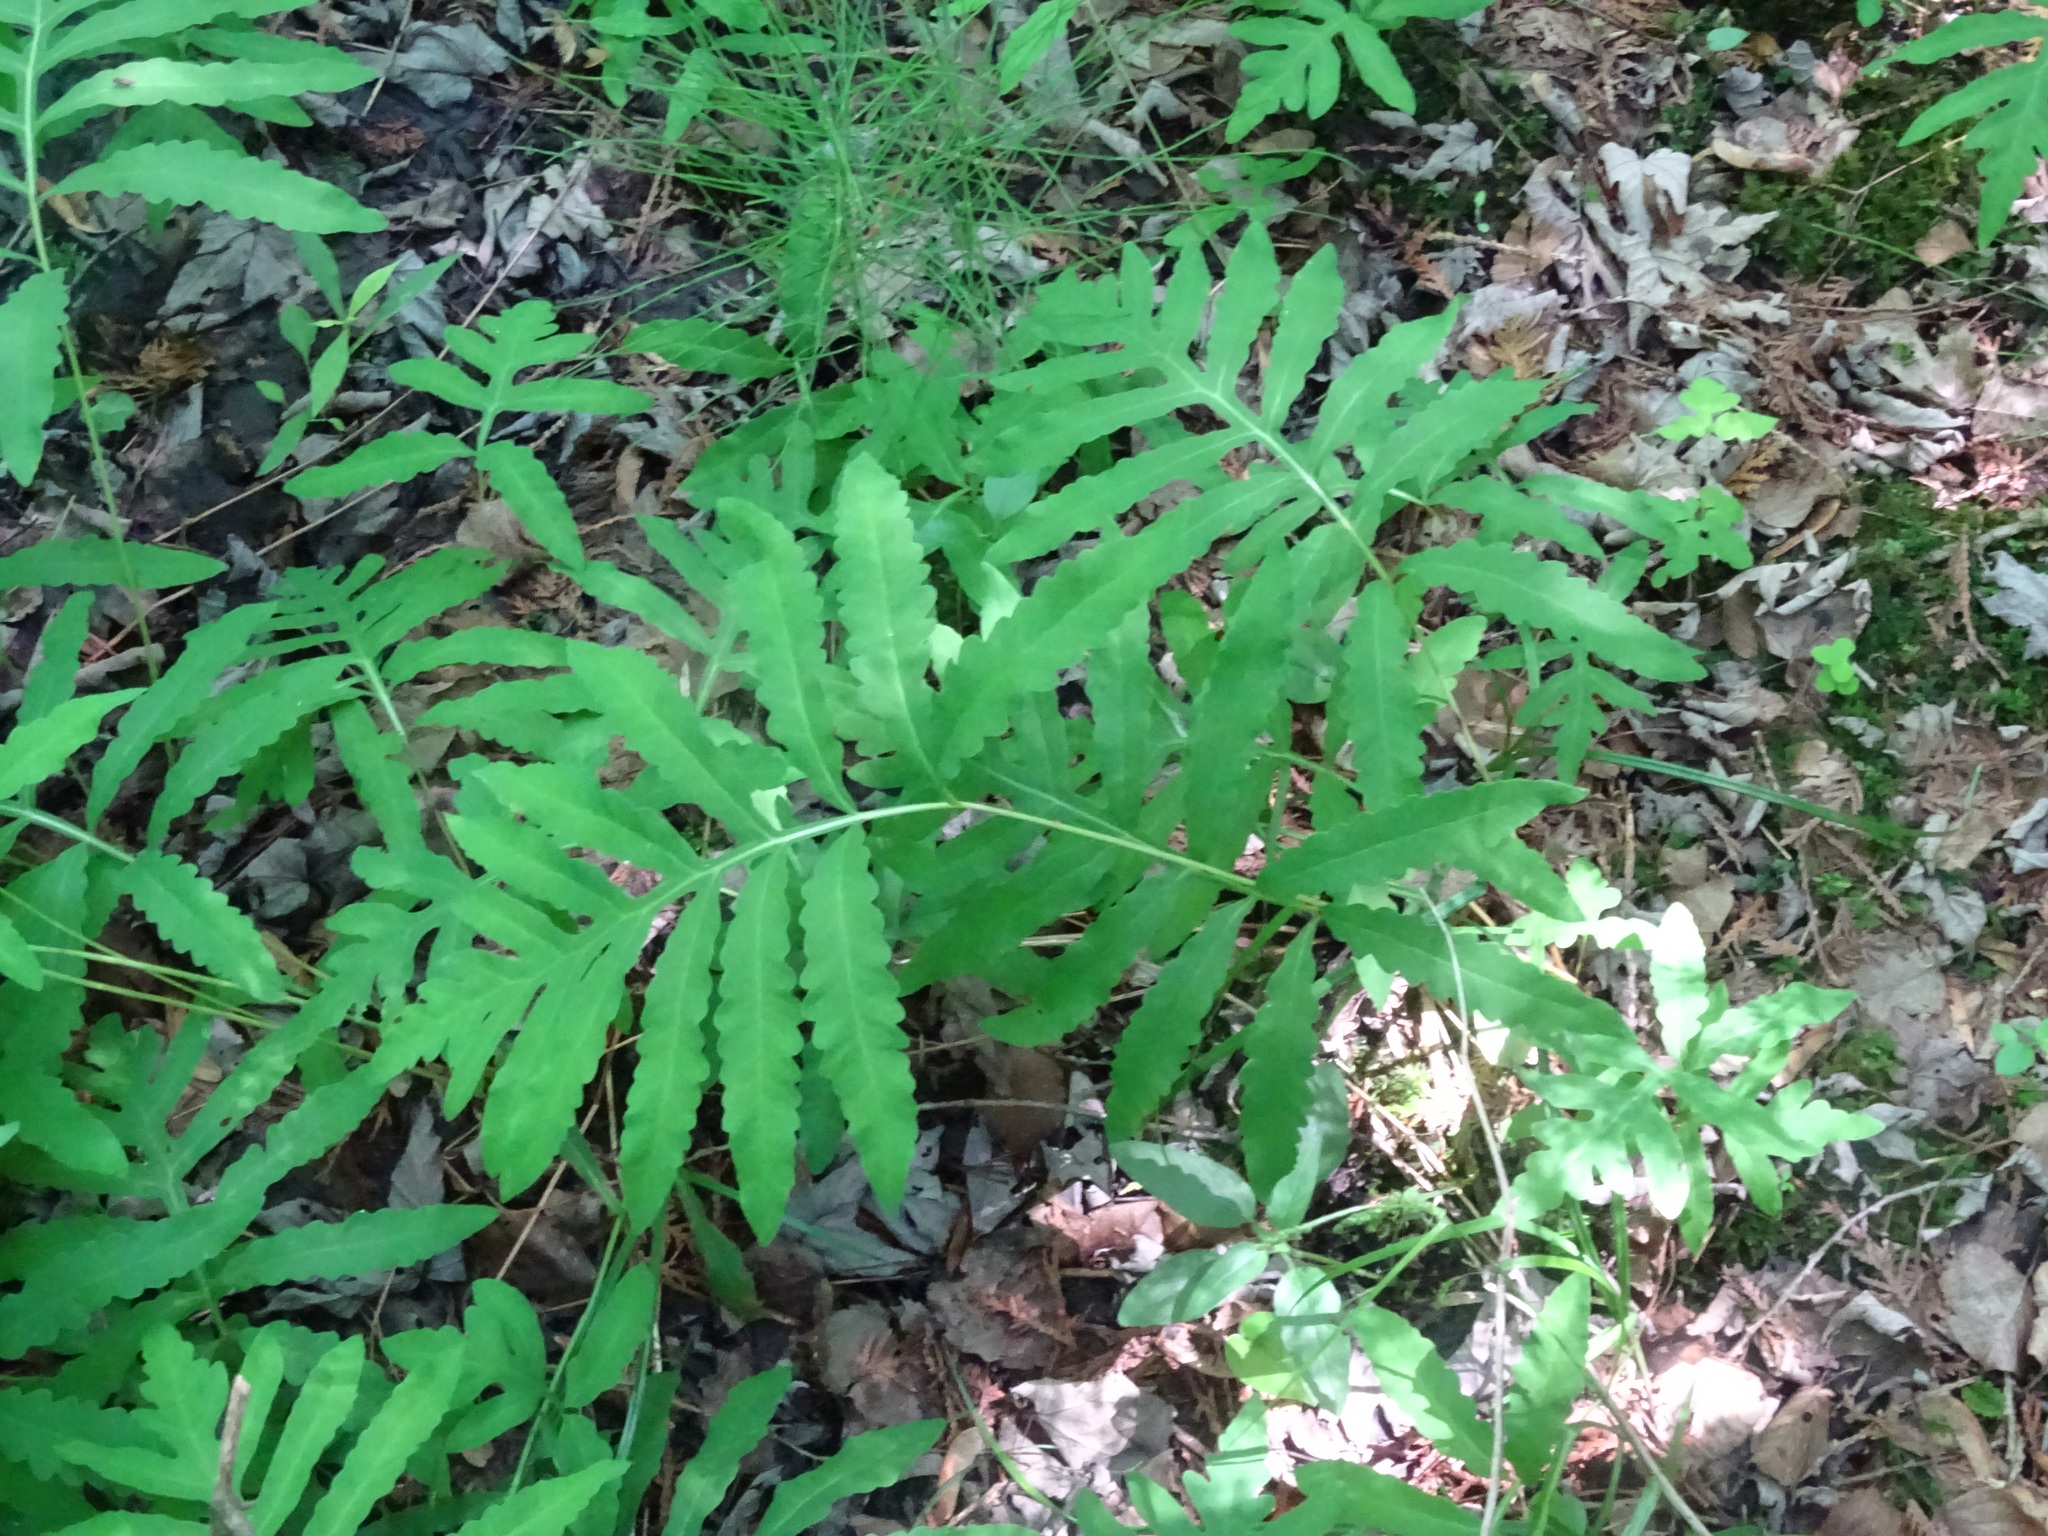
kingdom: Plantae
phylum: Tracheophyta
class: Polypodiopsida
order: Polypodiales
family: Onocleaceae
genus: Onoclea
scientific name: Onoclea sensibilis
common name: Sensitive fern
